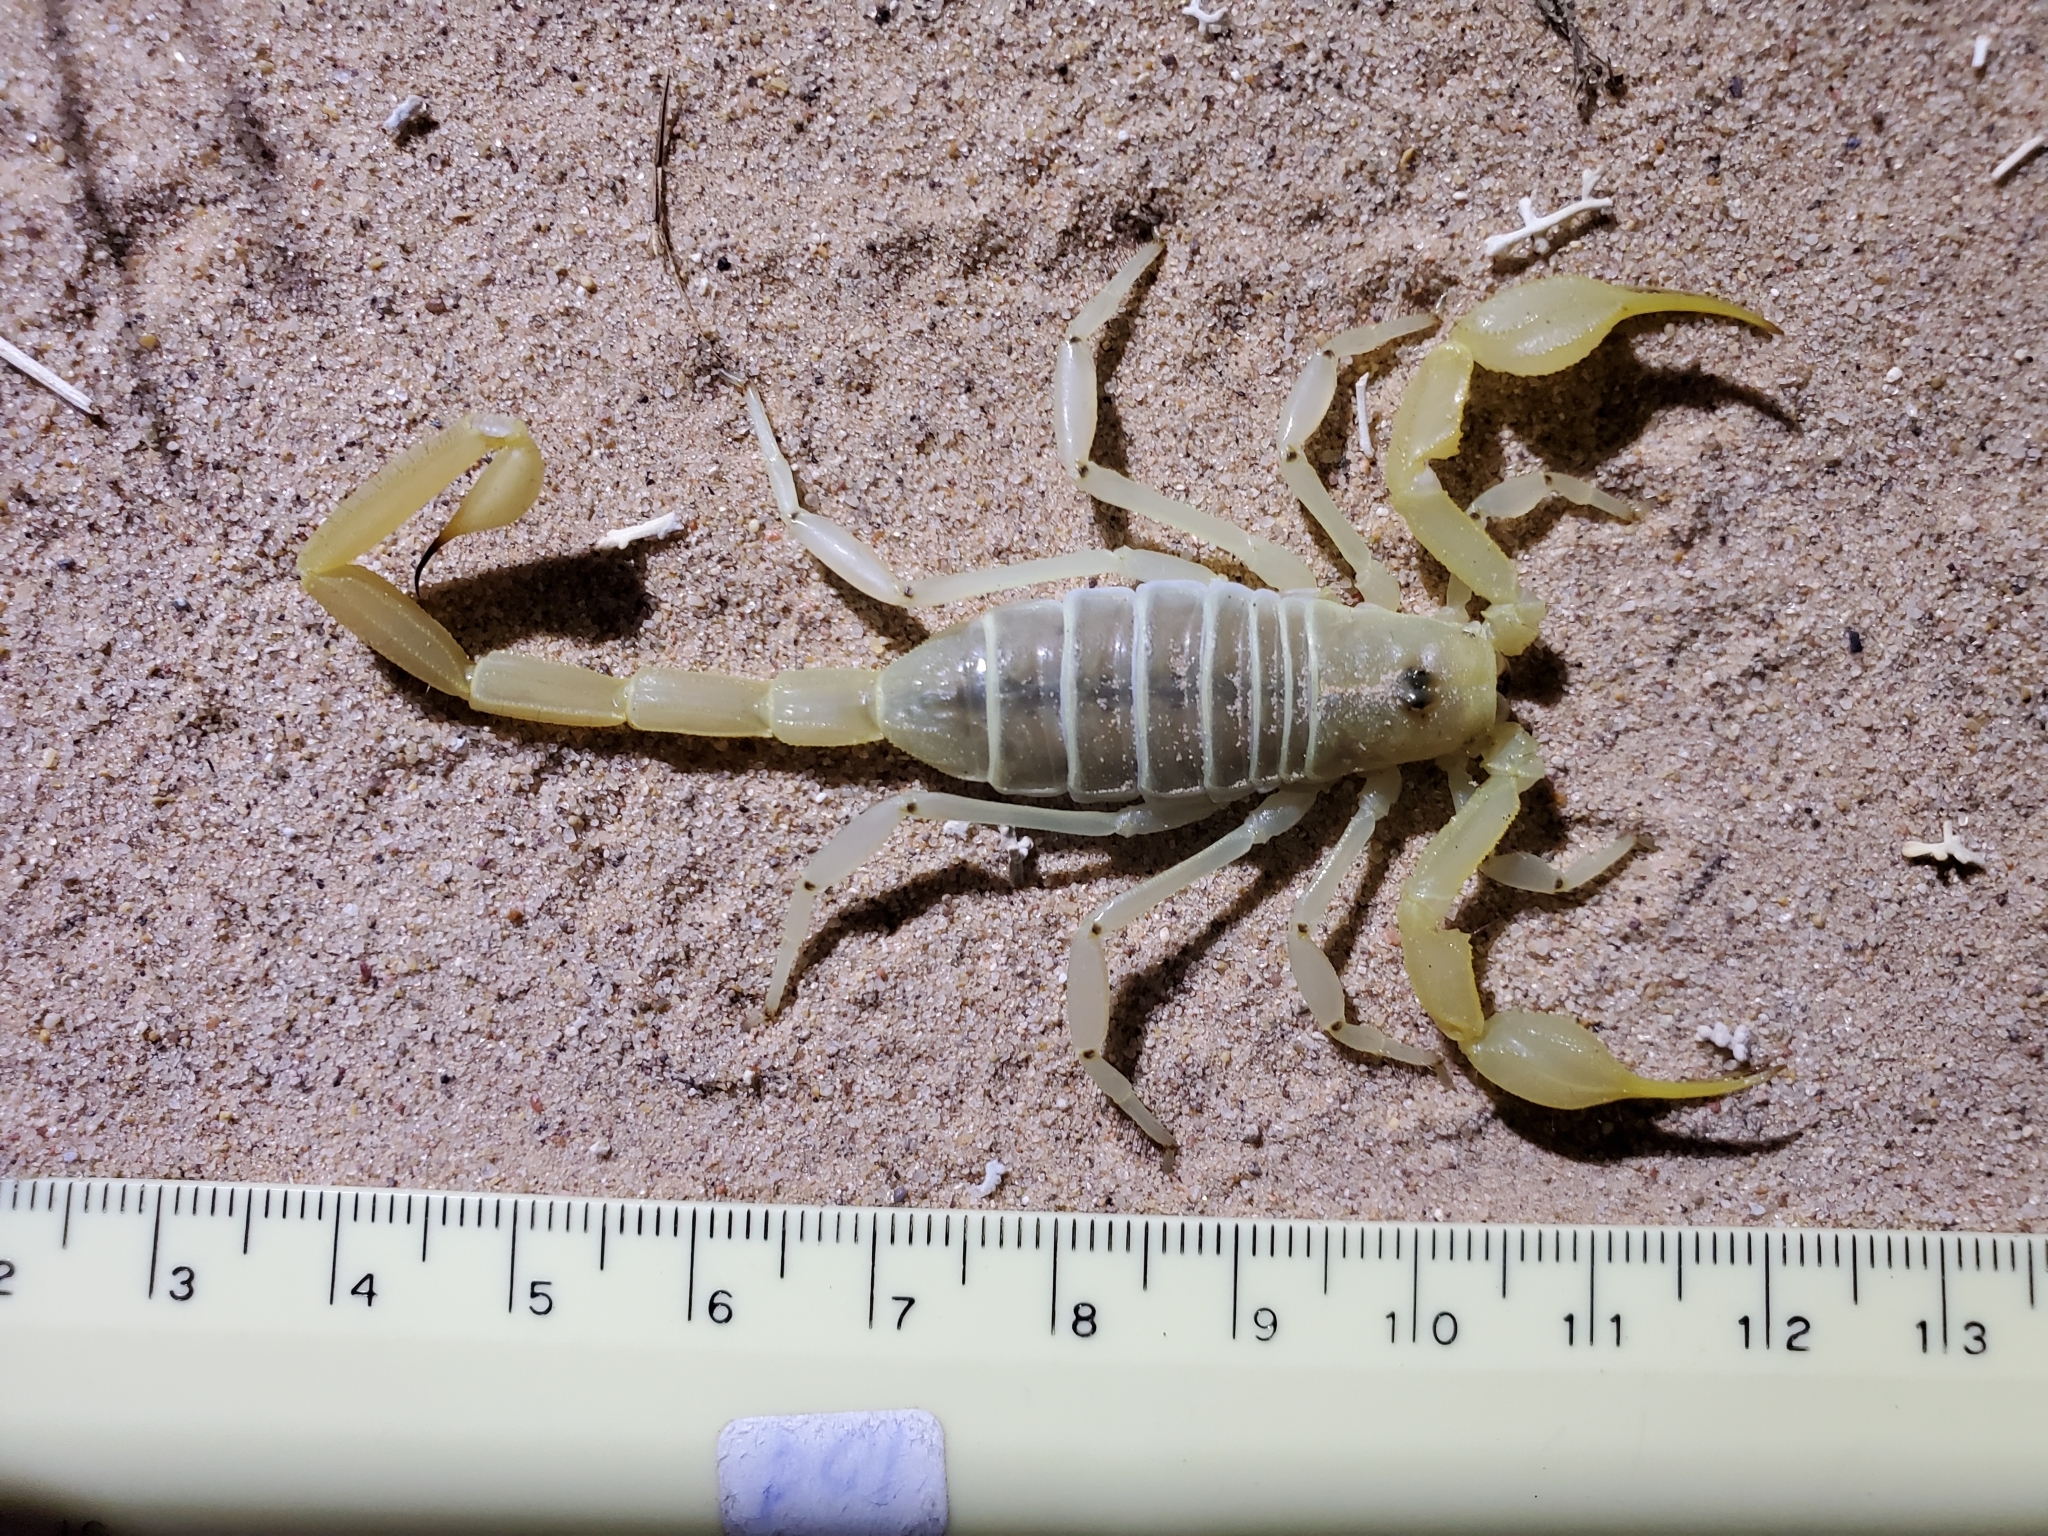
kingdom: Animalia
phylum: Arthropoda
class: Arachnida
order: Scorpiones
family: Vaejovidae
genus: Smeringurus
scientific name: Smeringurus mesaensis
